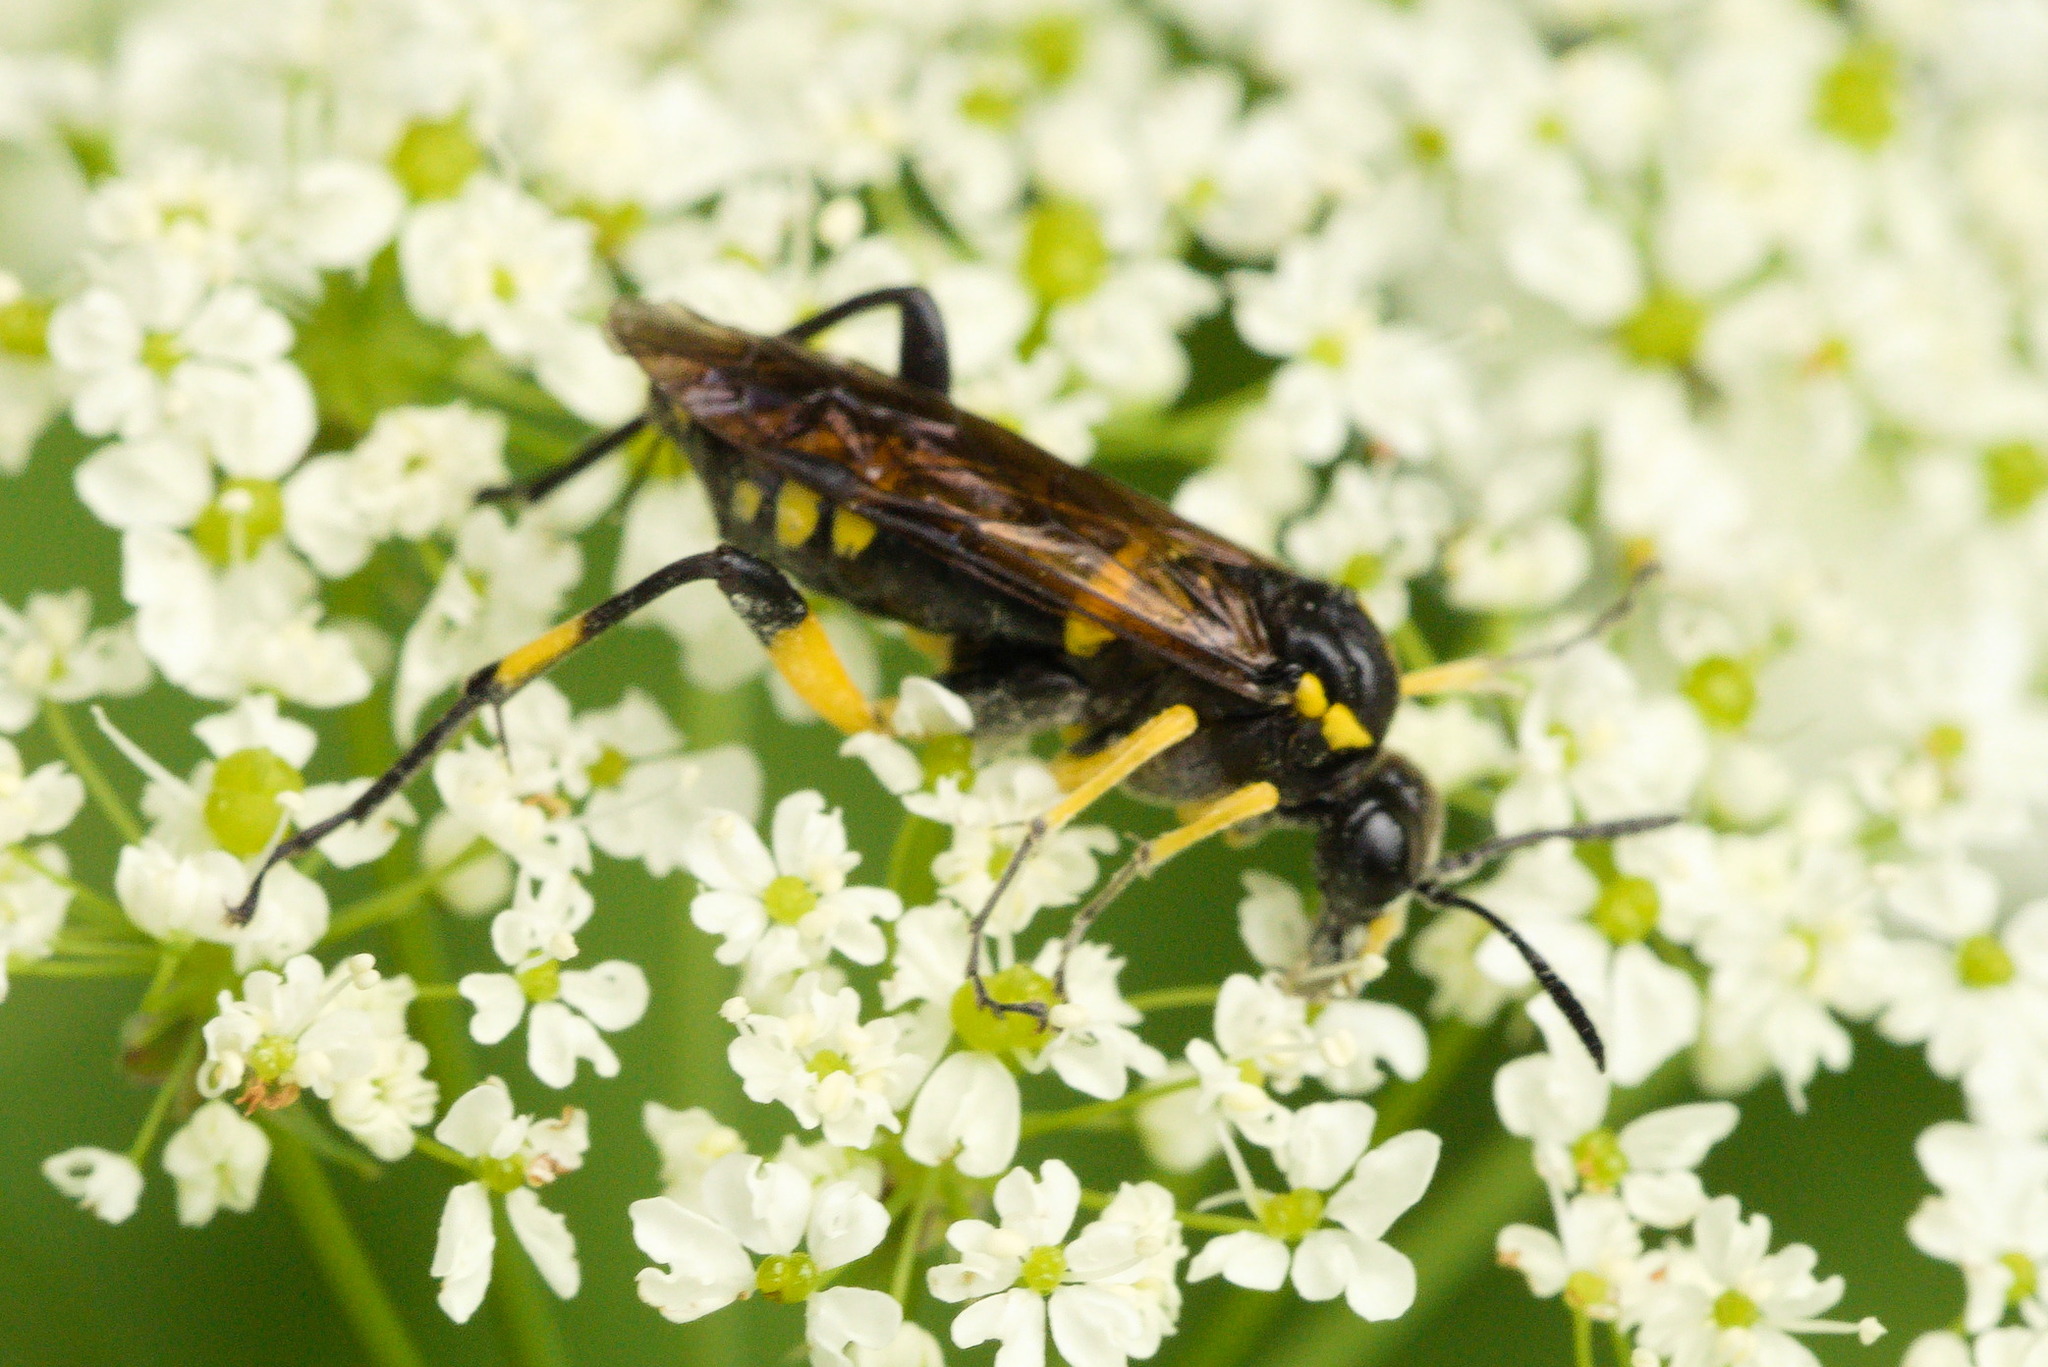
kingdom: Animalia
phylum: Arthropoda
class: Insecta
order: Hymenoptera
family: Tenthredinidae
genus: Macrophya
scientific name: Macrophya montana
